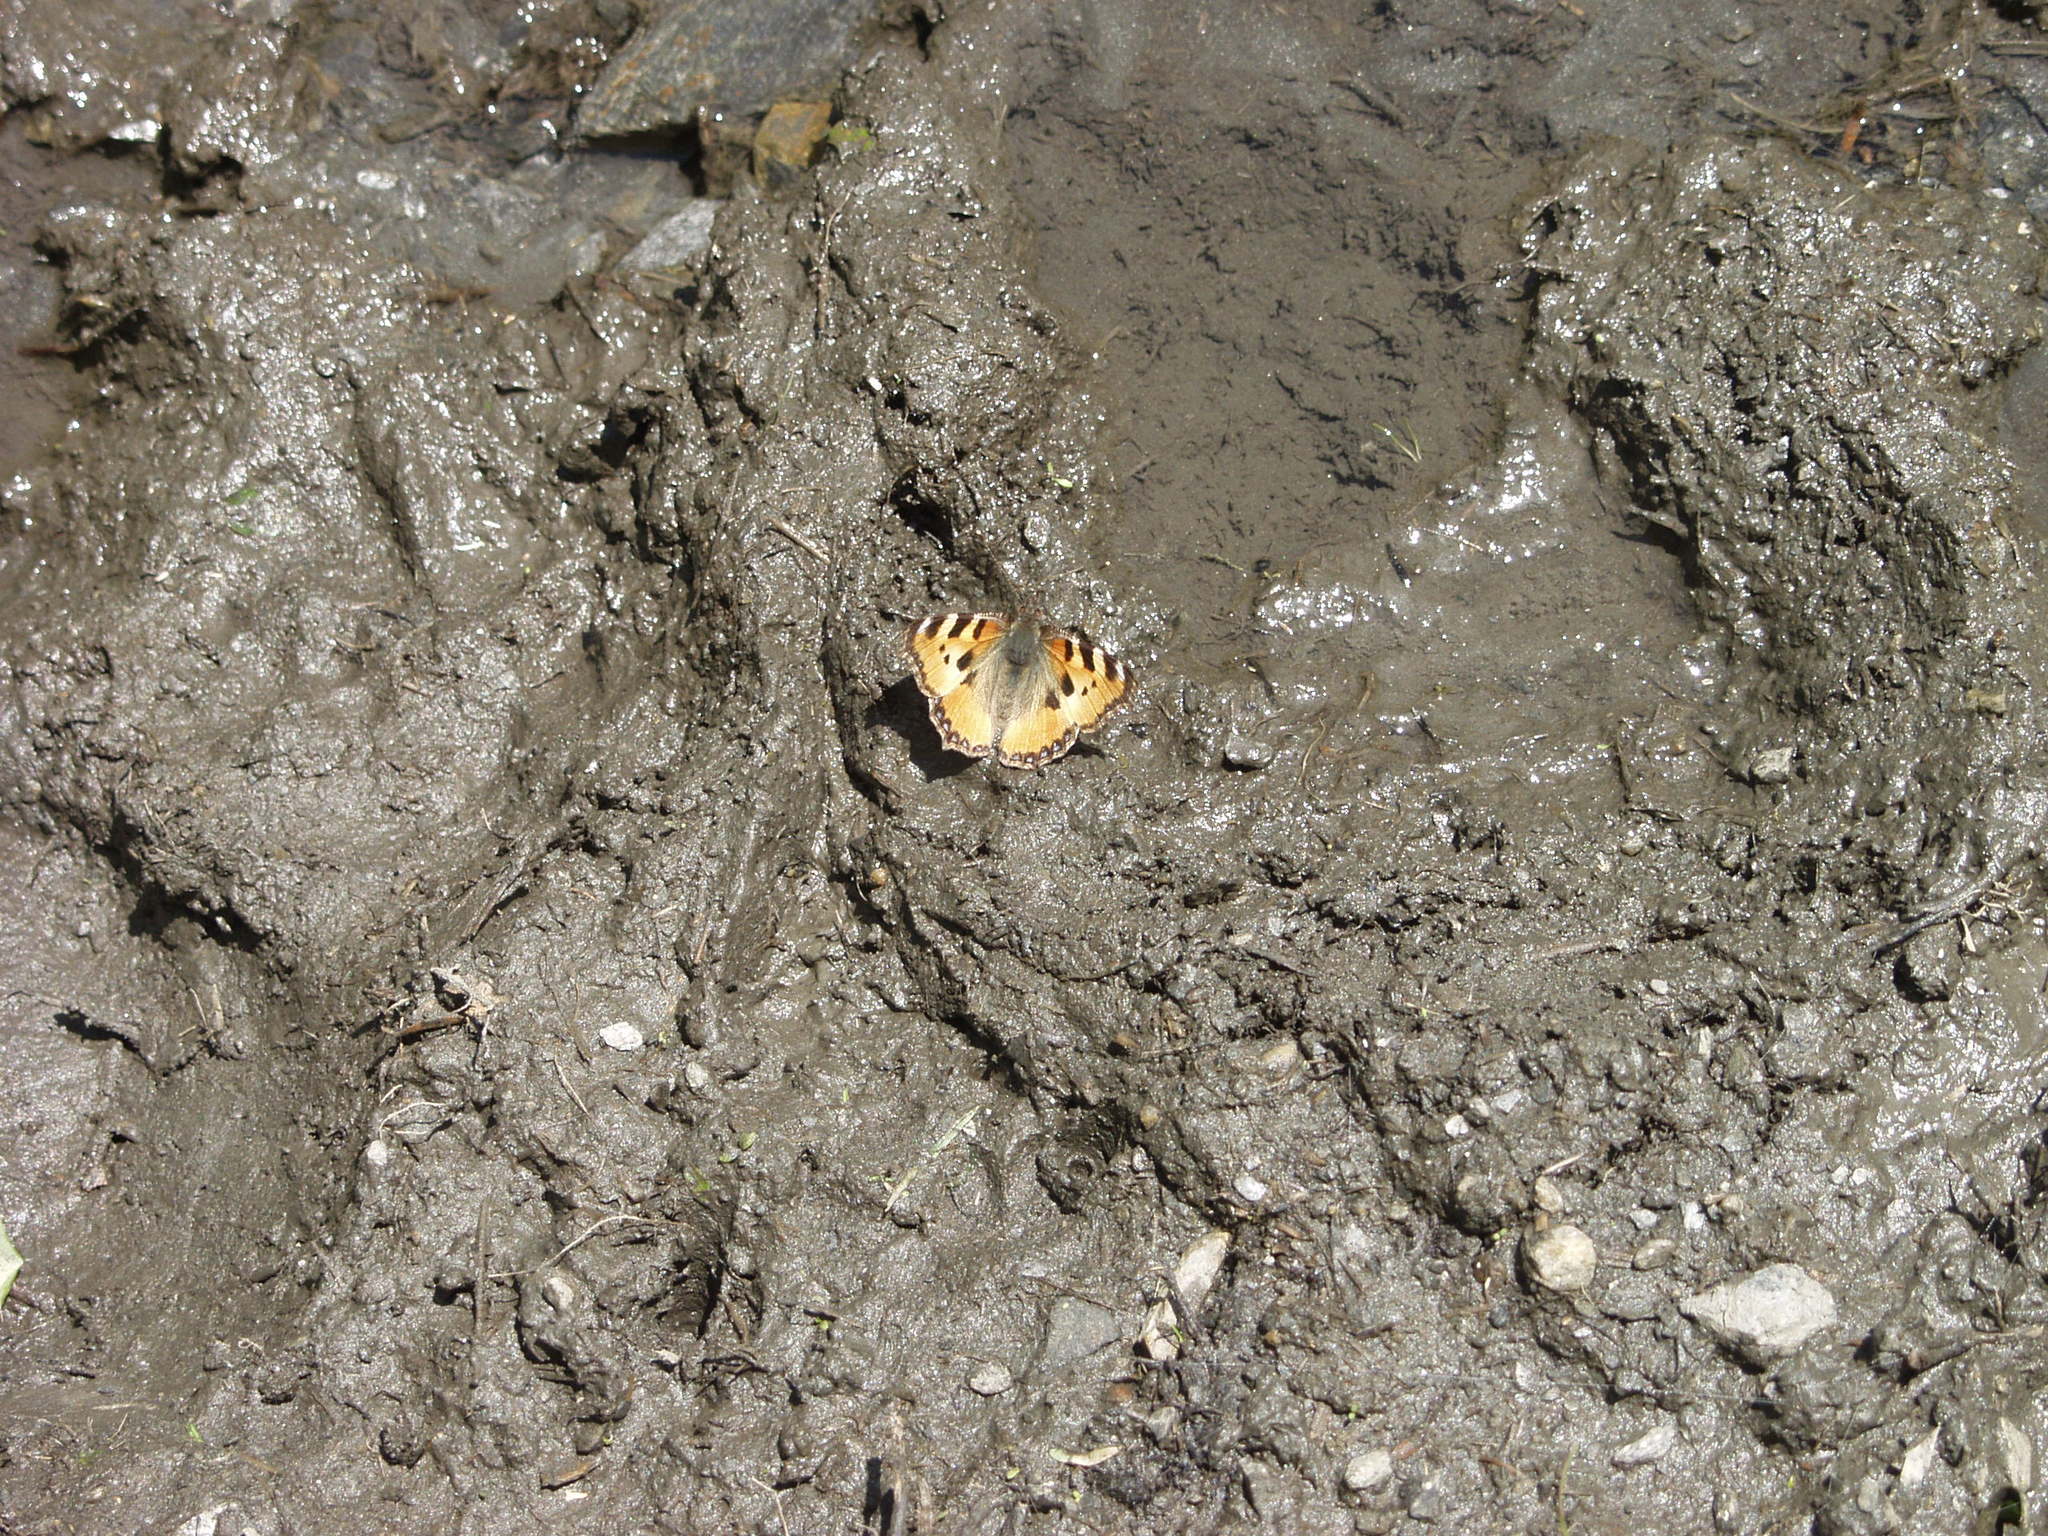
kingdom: Animalia
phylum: Arthropoda
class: Insecta
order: Lepidoptera
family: Nymphalidae
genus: Aglais
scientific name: Aglais urticae
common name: Small tortoiseshell
